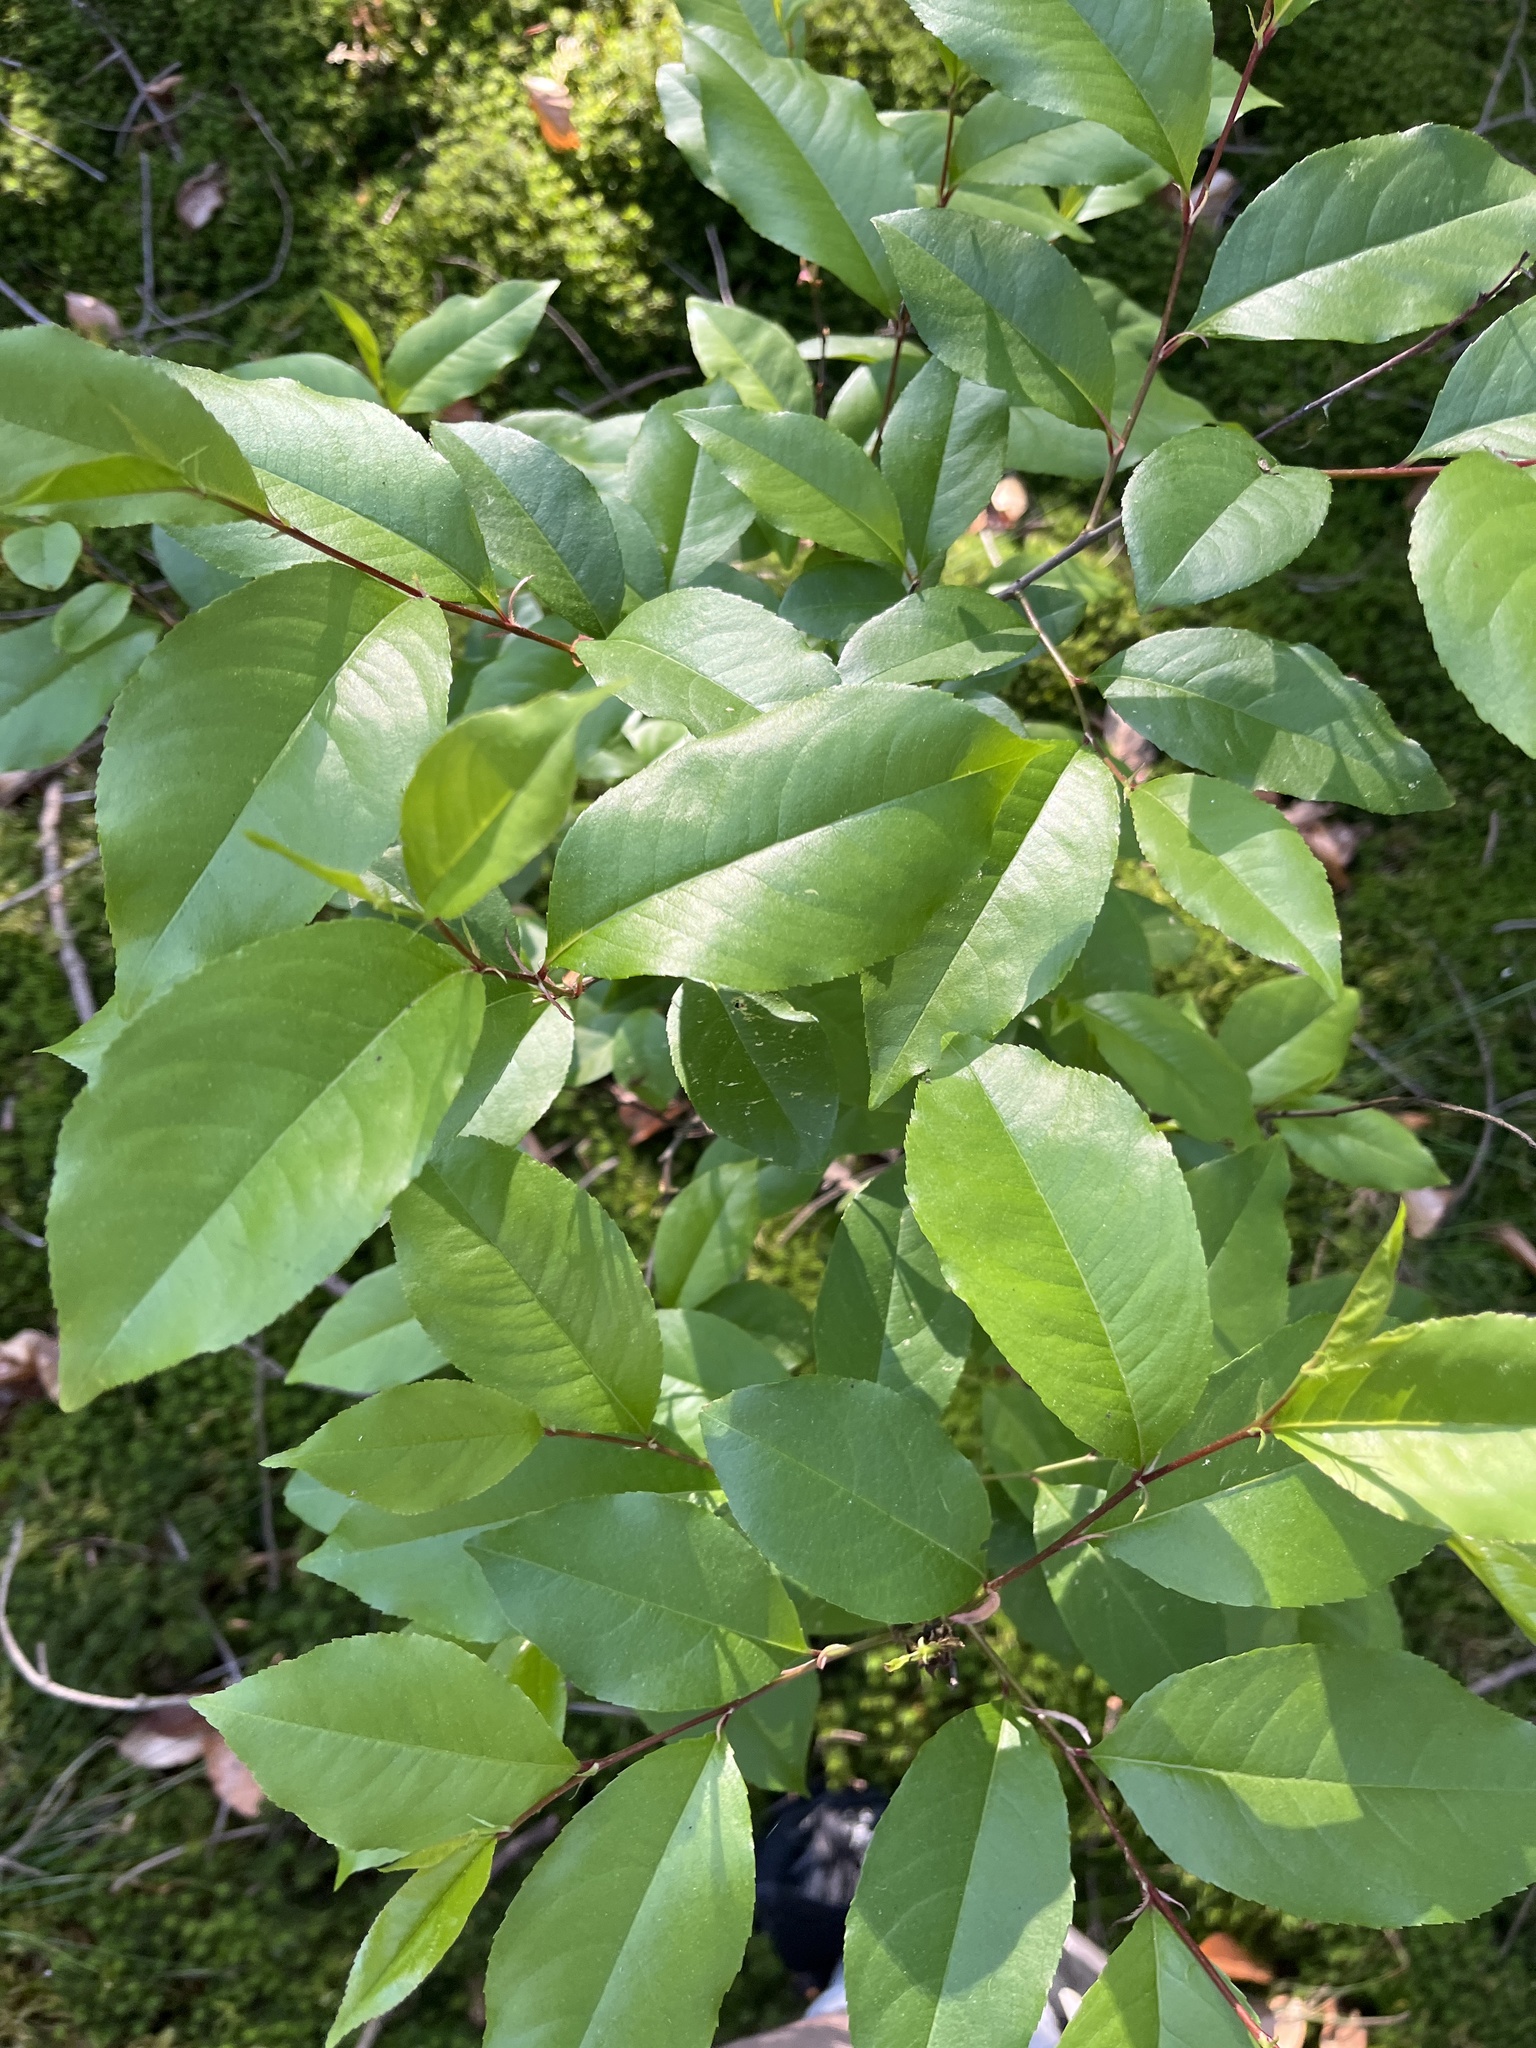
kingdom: Plantae
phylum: Tracheophyta
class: Magnoliopsida
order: Rosales
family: Rosaceae
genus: Prunus
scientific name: Prunus serotina
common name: Black cherry
